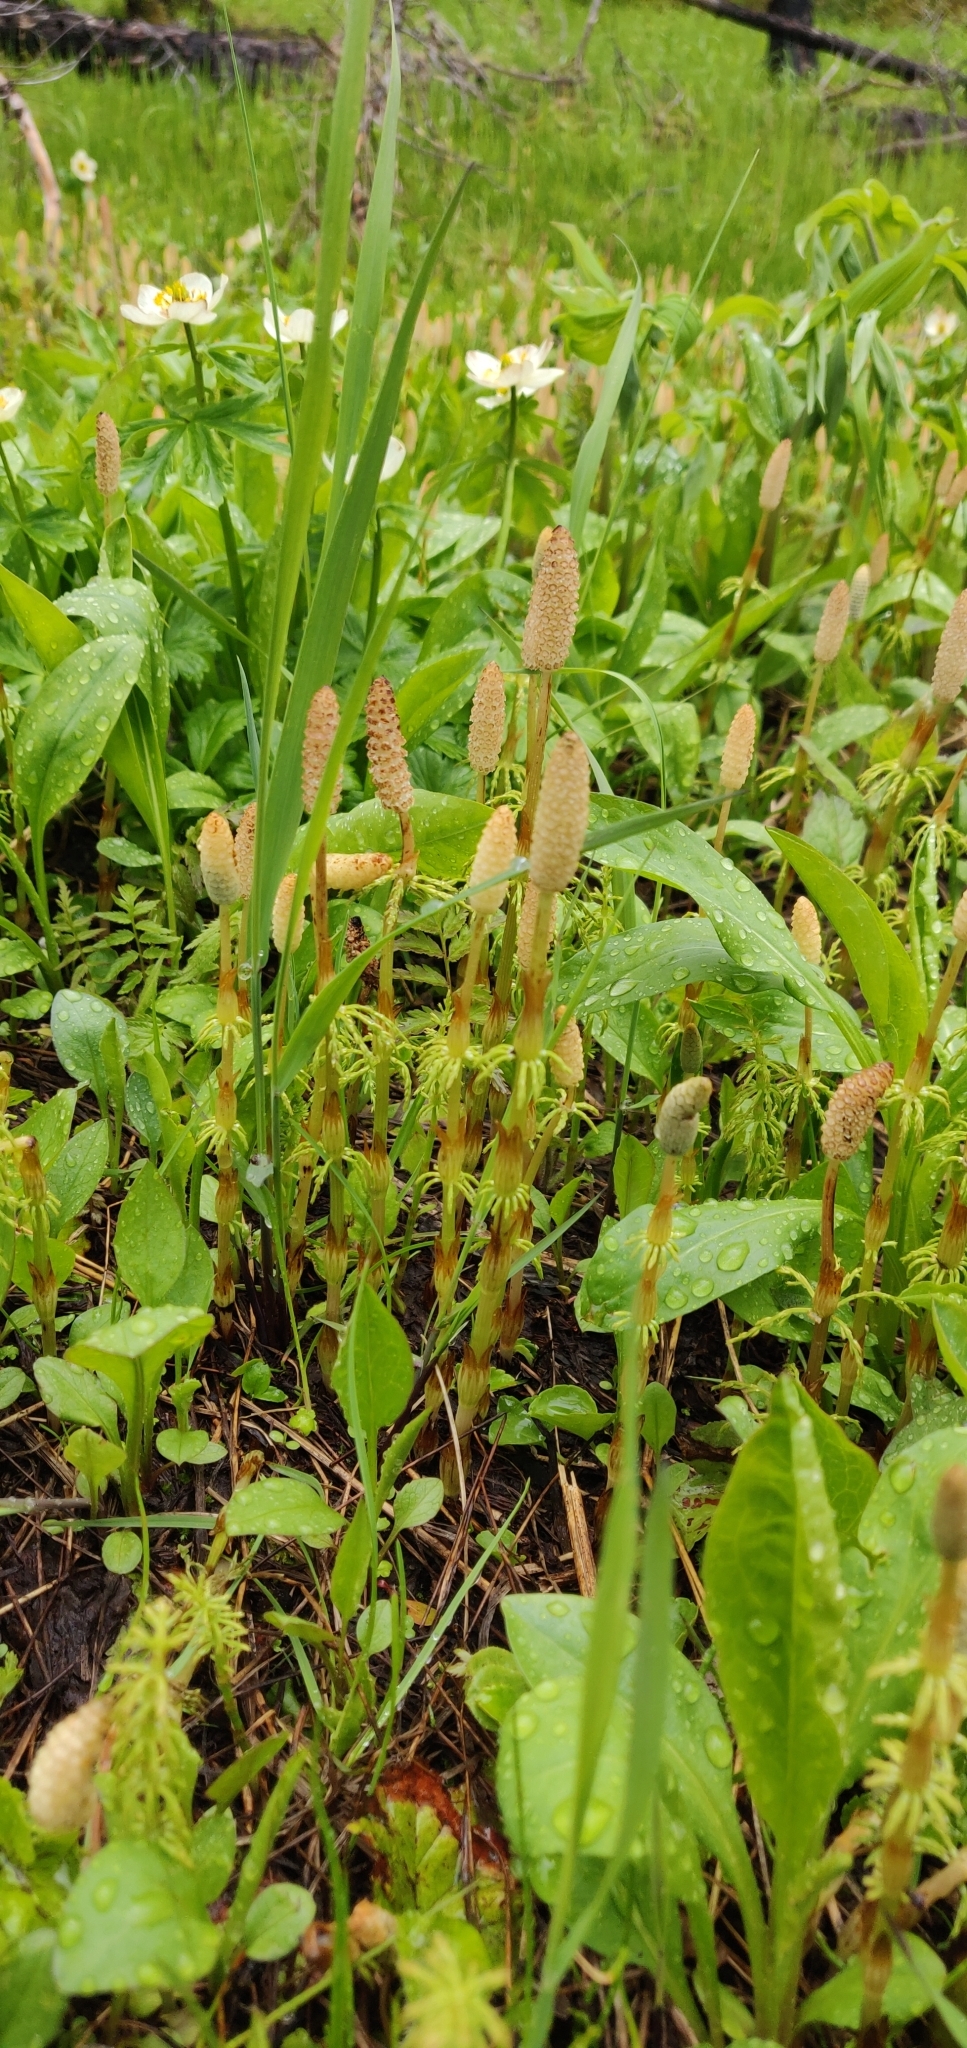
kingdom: Plantae
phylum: Tracheophyta
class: Polypodiopsida
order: Equisetales
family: Equisetaceae
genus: Equisetum
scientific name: Equisetum sylvaticum
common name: Wood horsetail
